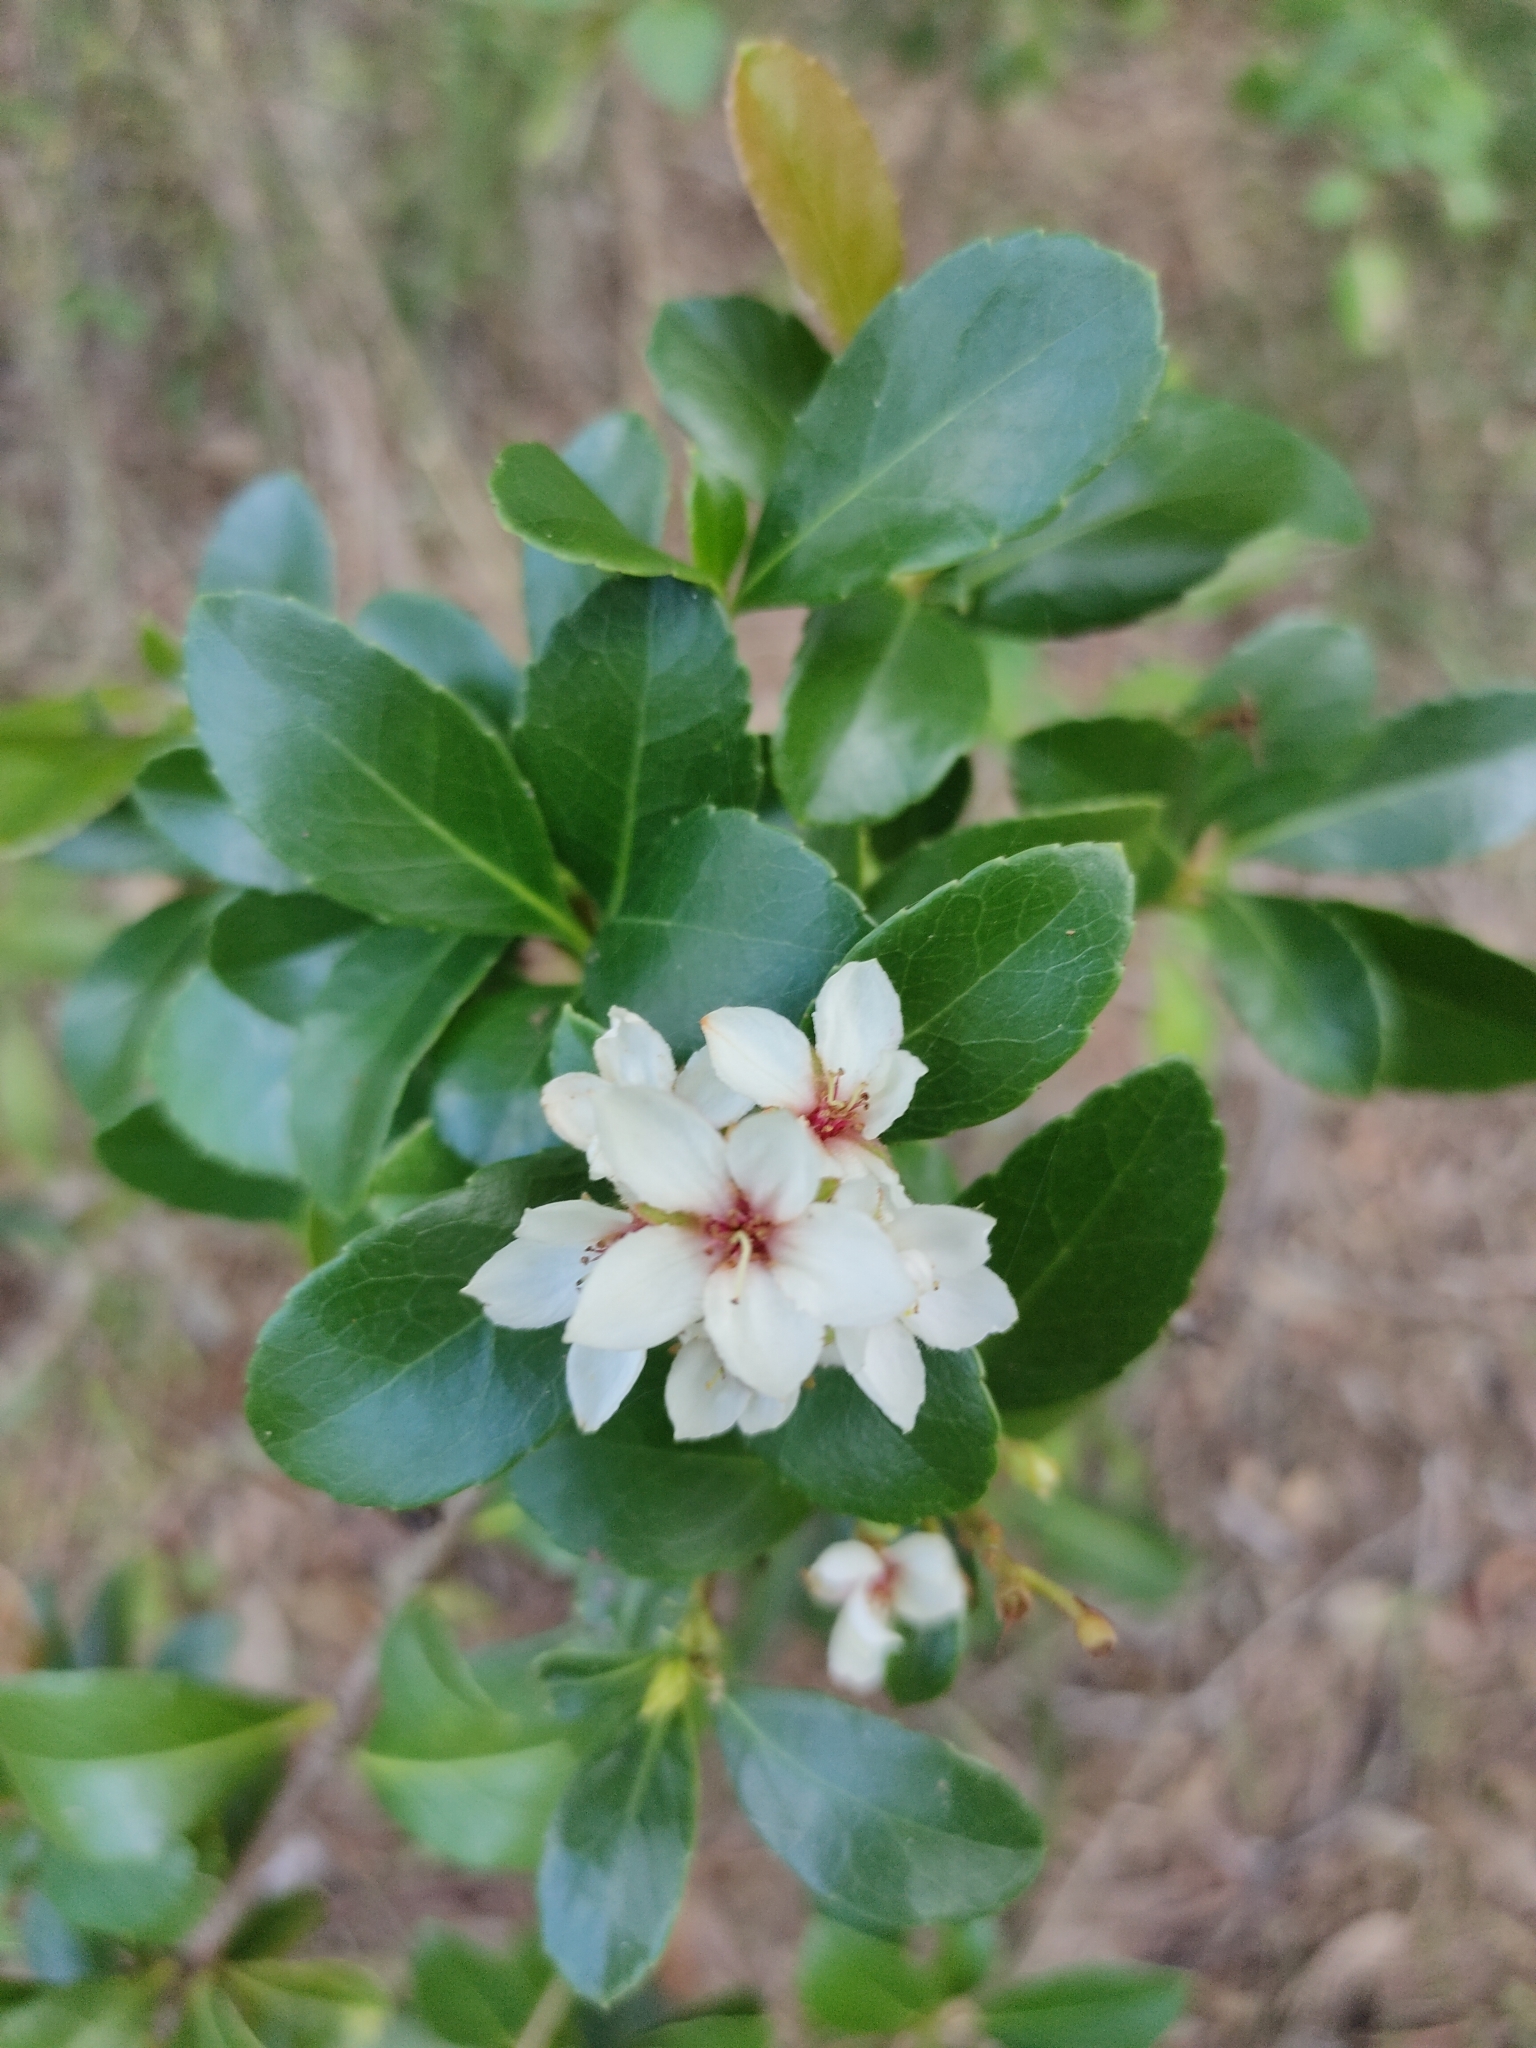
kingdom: Plantae
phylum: Tracheophyta
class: Magnoliopsida
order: Rosales
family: Rosaceae
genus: Rhaphiolepis
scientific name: Rhaphiolepis indica
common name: India-hawthorn
